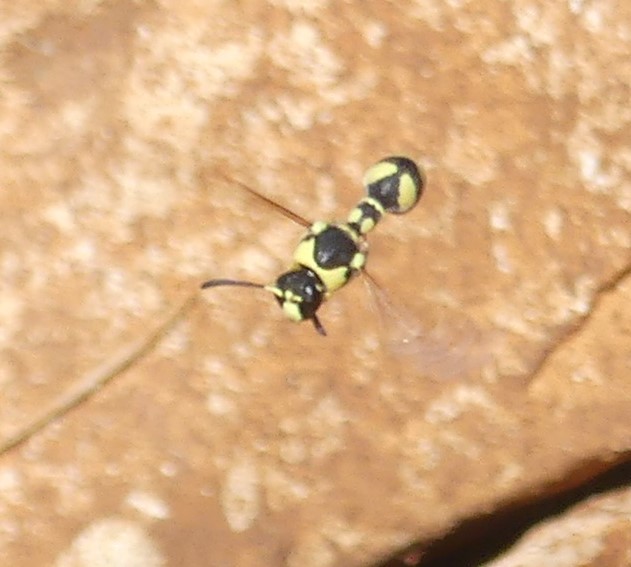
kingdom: Animalia
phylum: Arthropoda
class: Insecta
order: Hymenoptera
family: Vespidae
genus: Eumenes
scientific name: Eumenes
